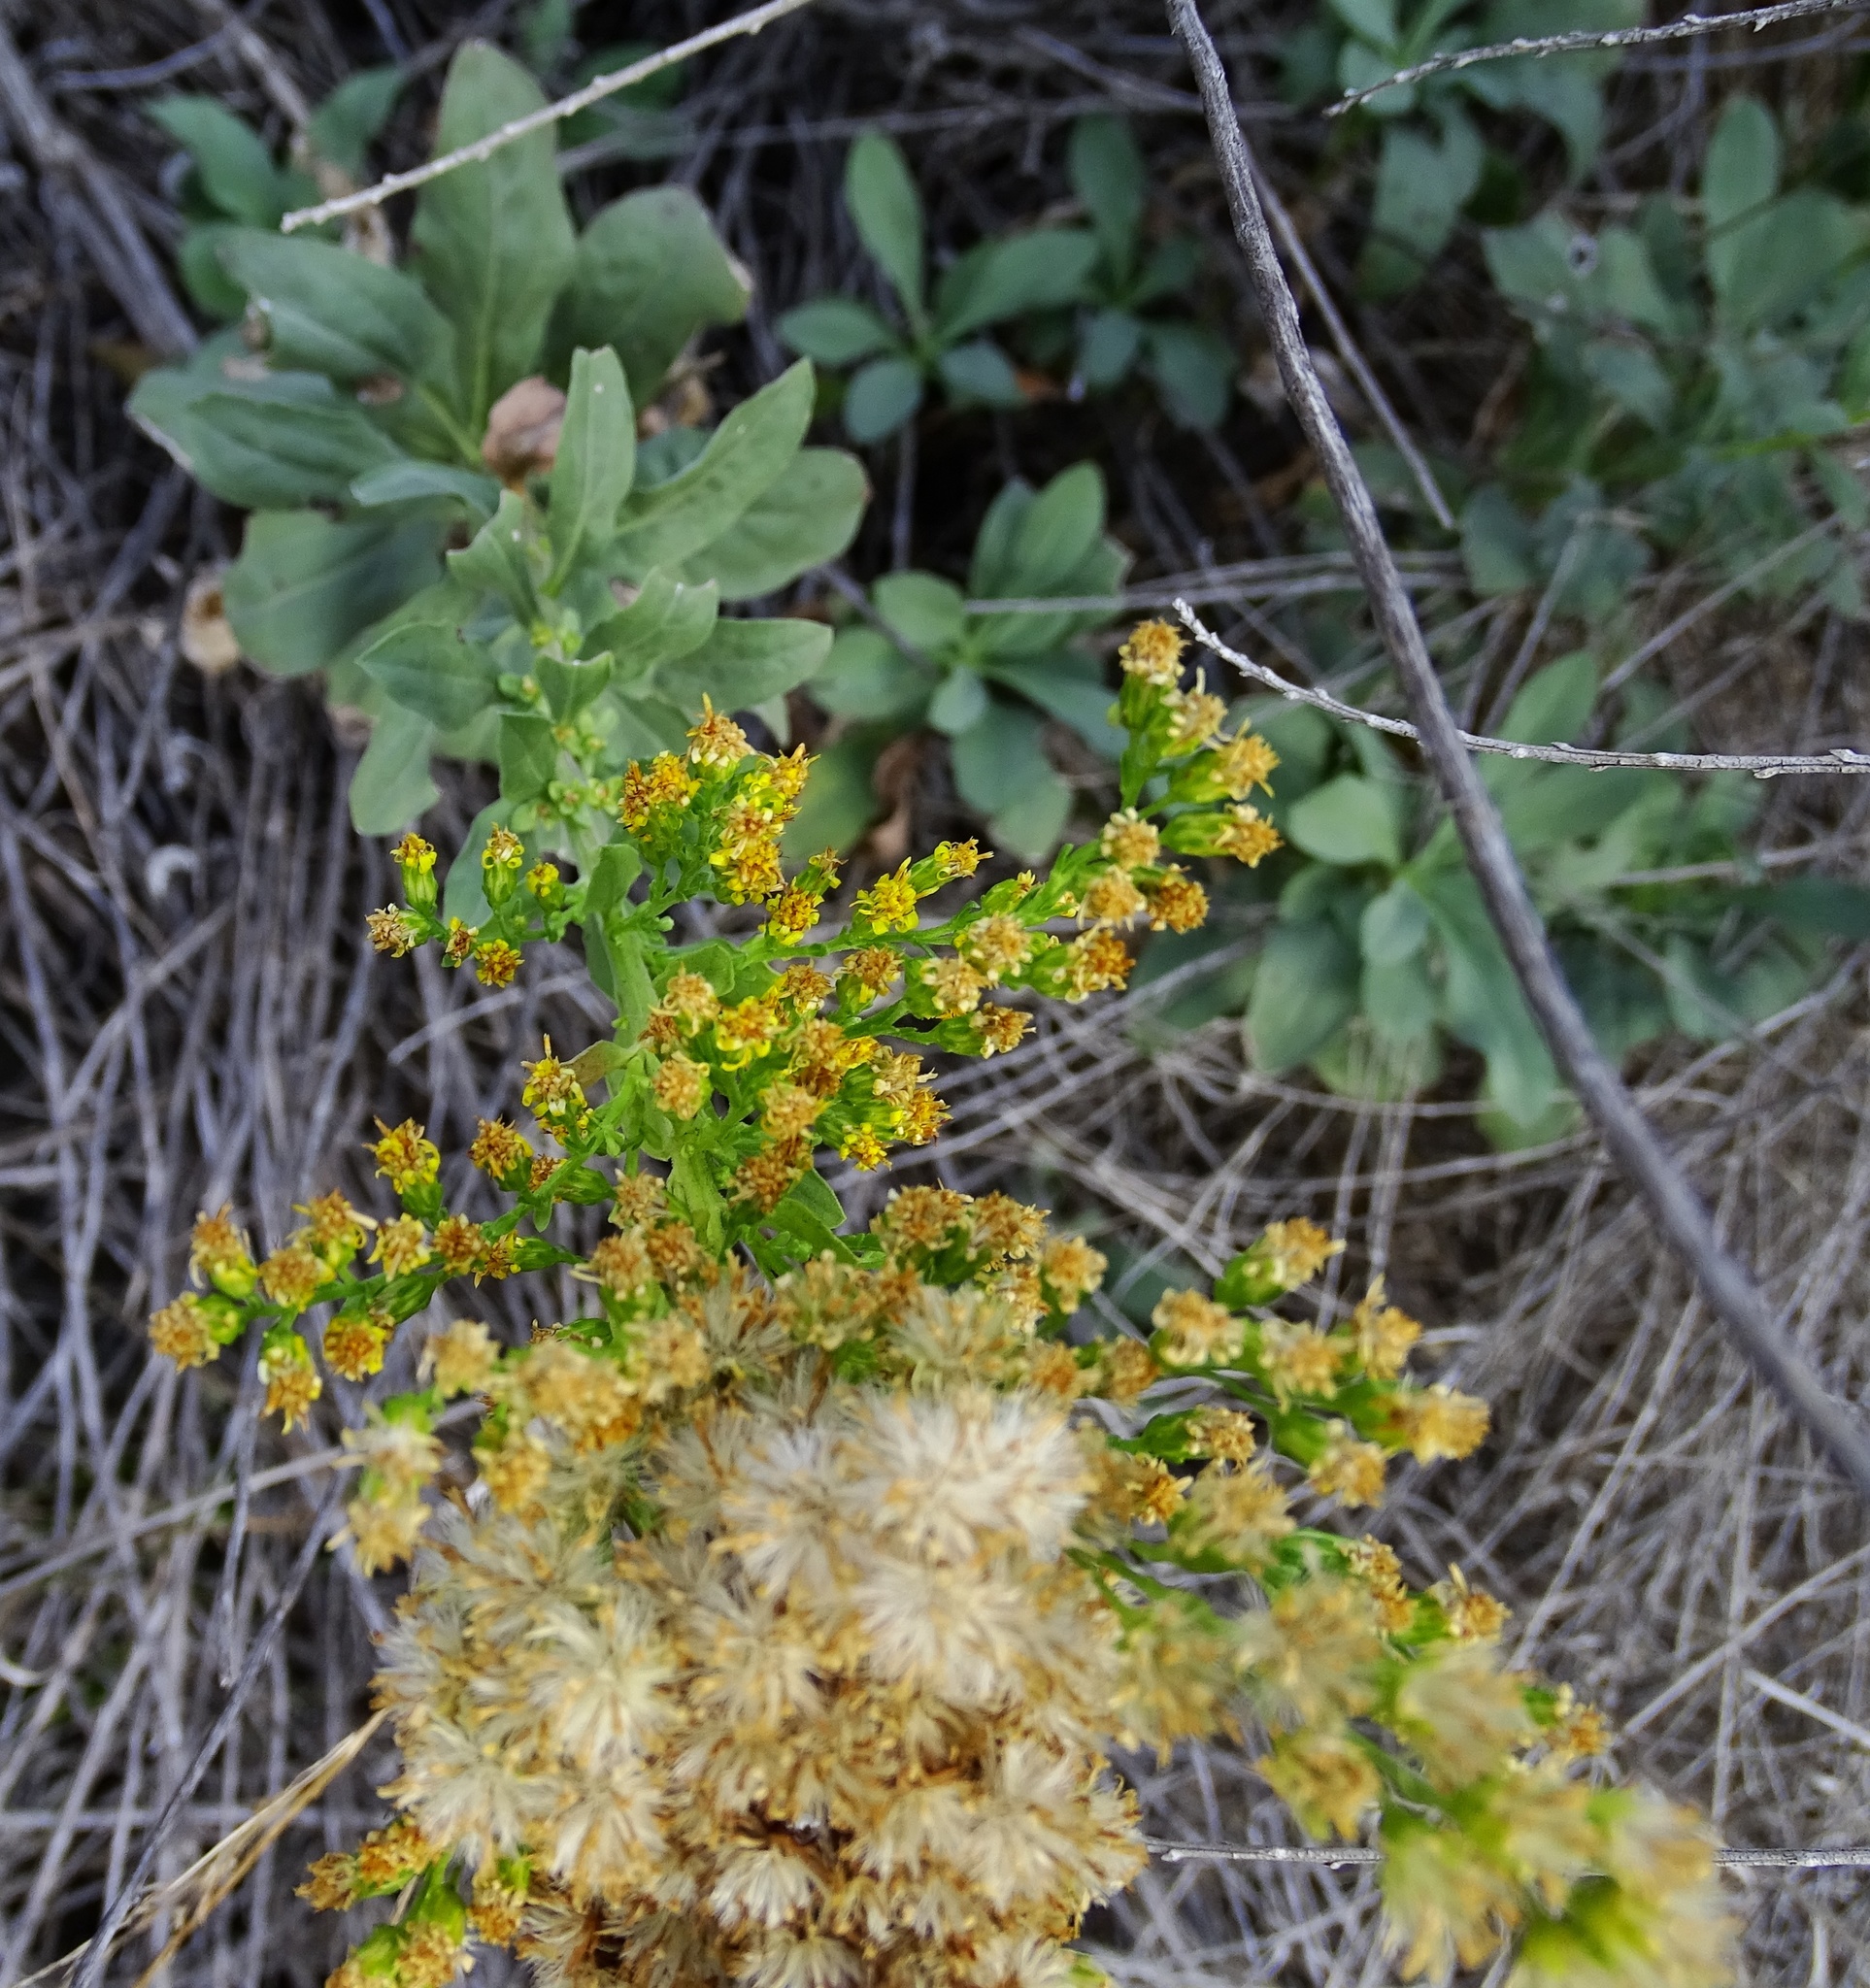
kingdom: Plantae
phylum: Tracheophyta
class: Magnoliopsida
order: Asterales
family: Asteraceae
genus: Solidago
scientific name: Solidago californica
